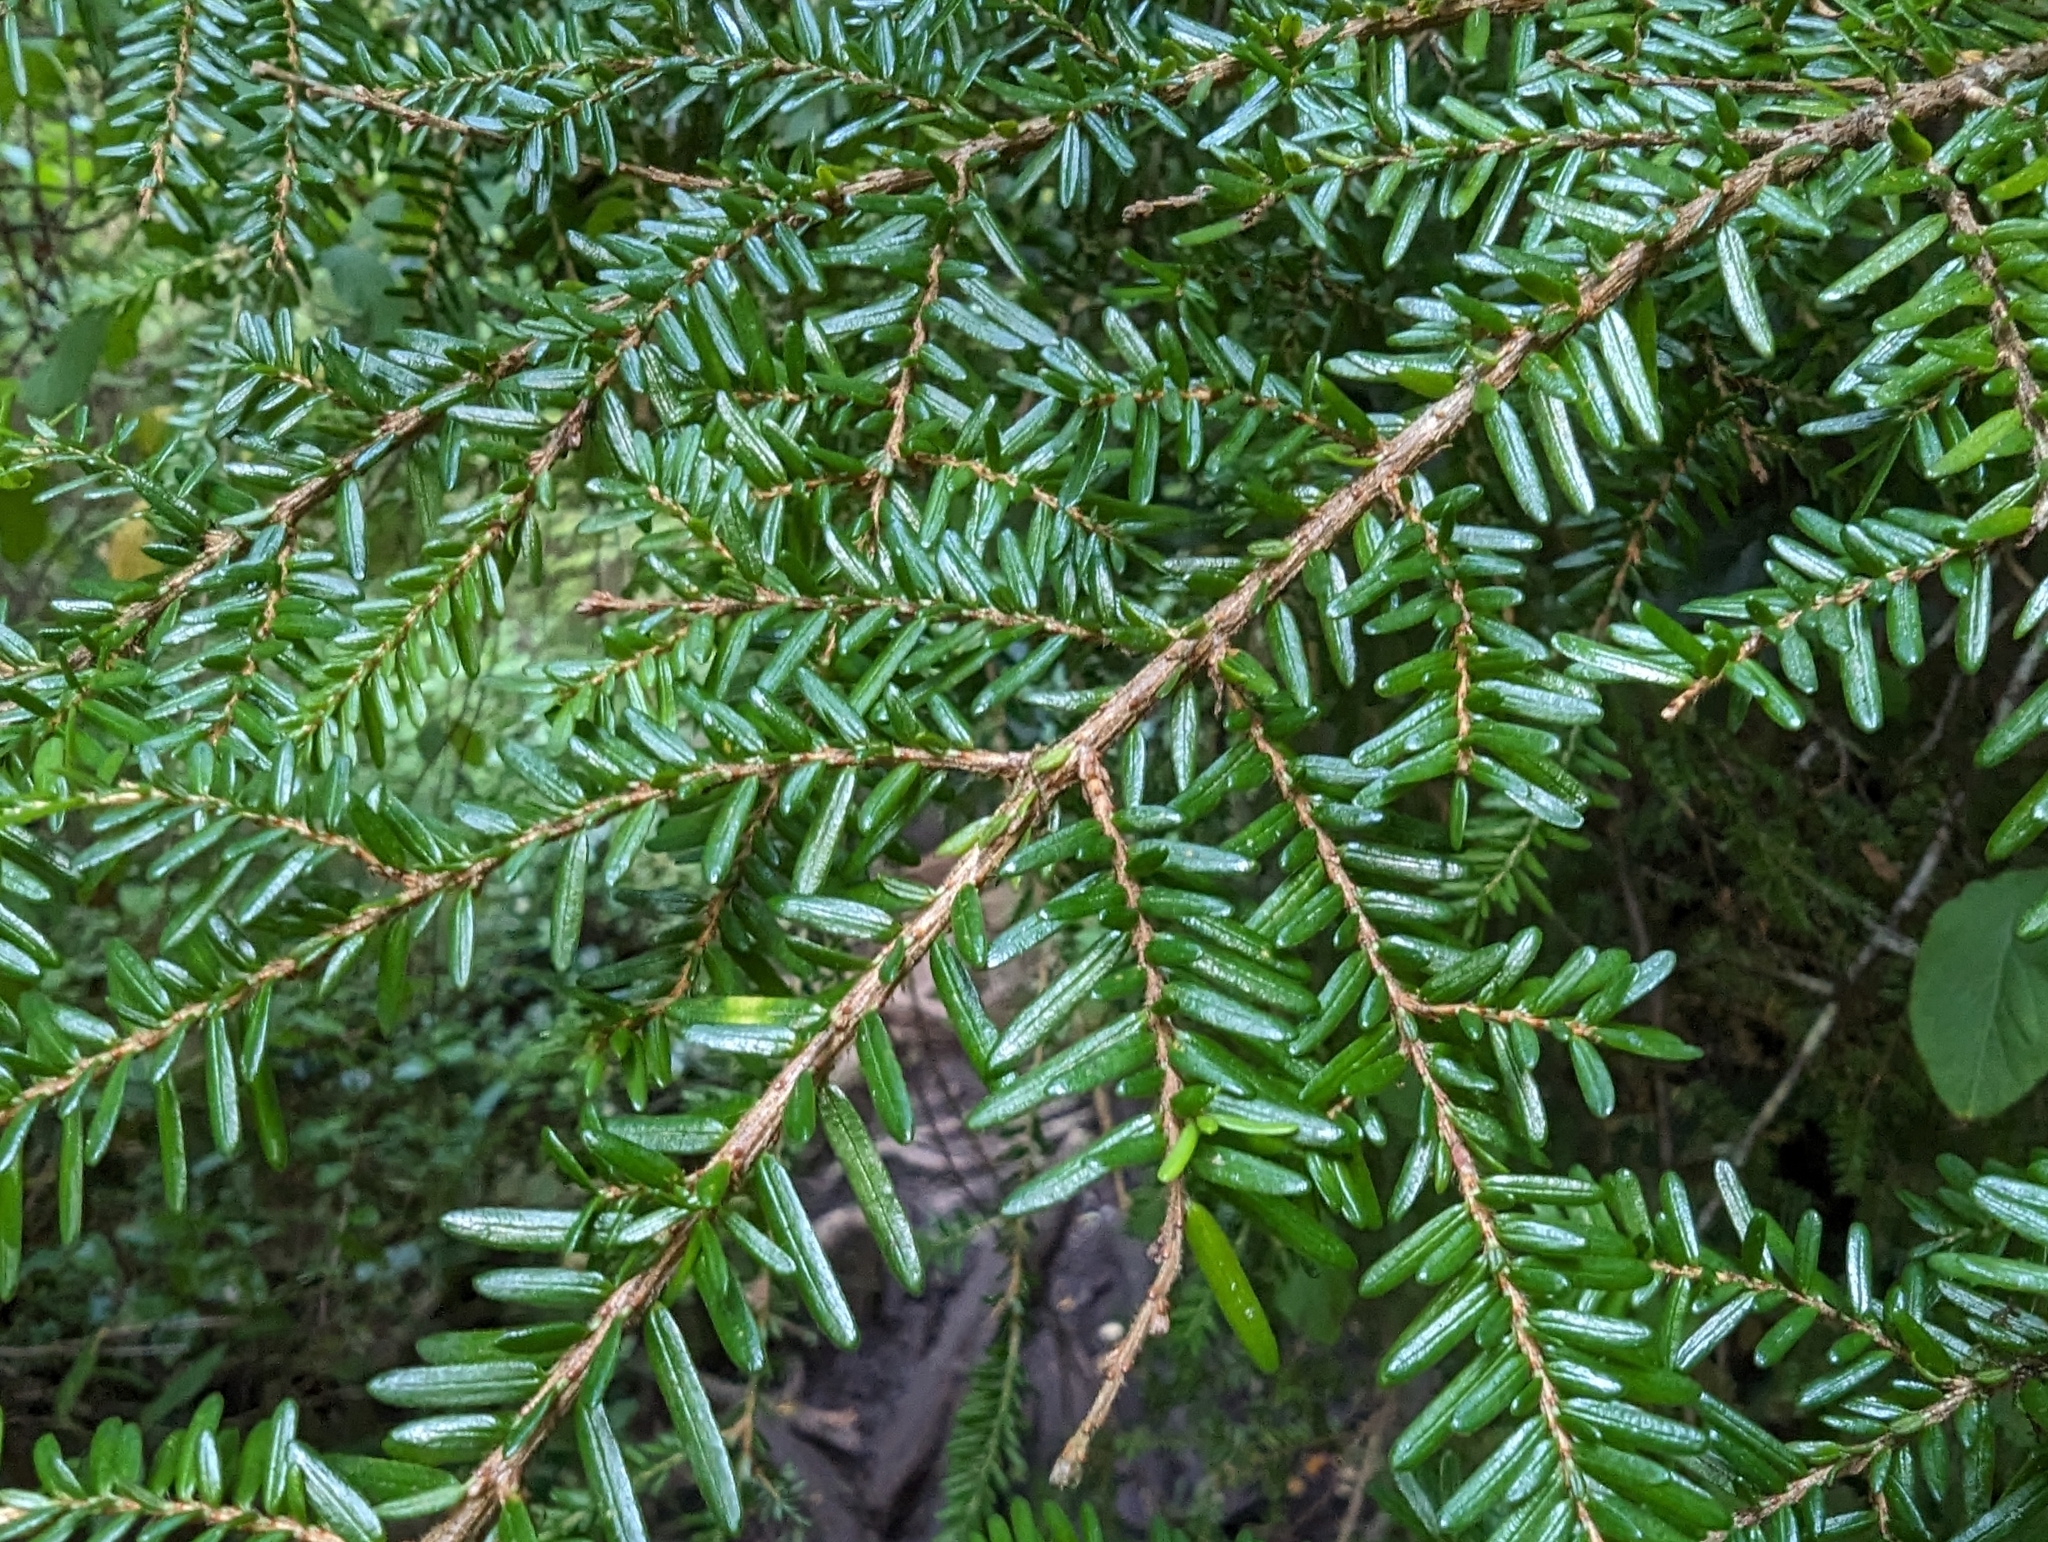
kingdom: Plantae
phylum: Tracheophyta
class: Pinopsida
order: Pinales
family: Pinaceae
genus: Tsuga
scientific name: Tsuga heterophylla
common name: Western hemlock
